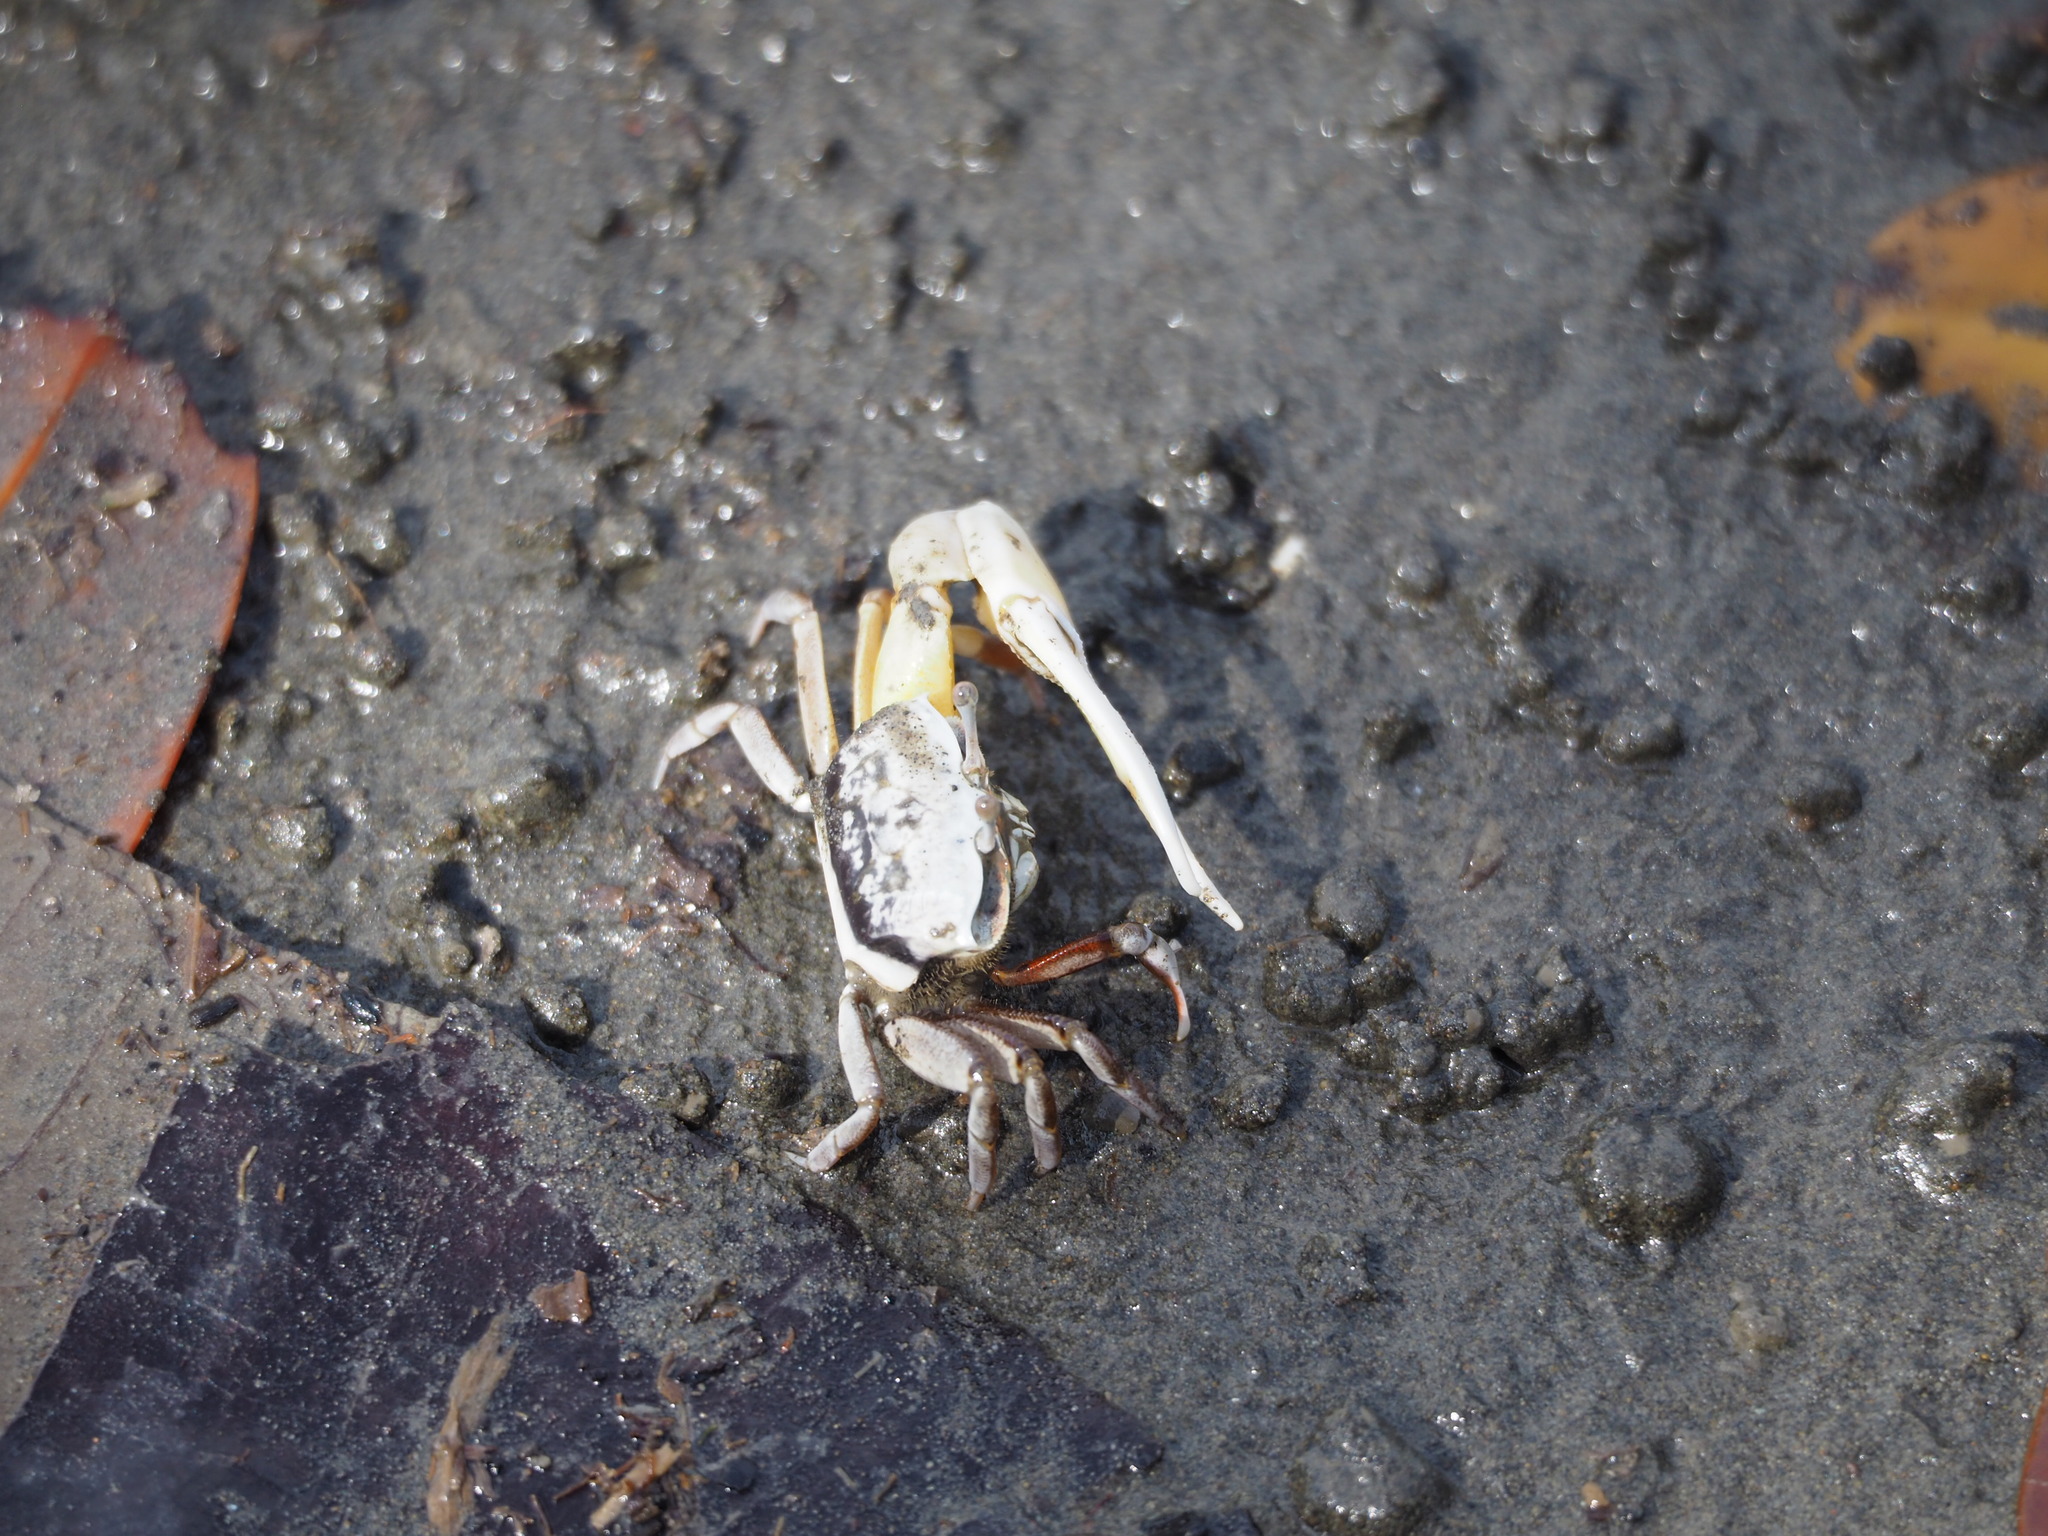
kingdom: Animalia
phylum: Arthropoda
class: Malacostraca
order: Decapoda
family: Ocypodidae
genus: Austruca
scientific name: Austruca lactea
